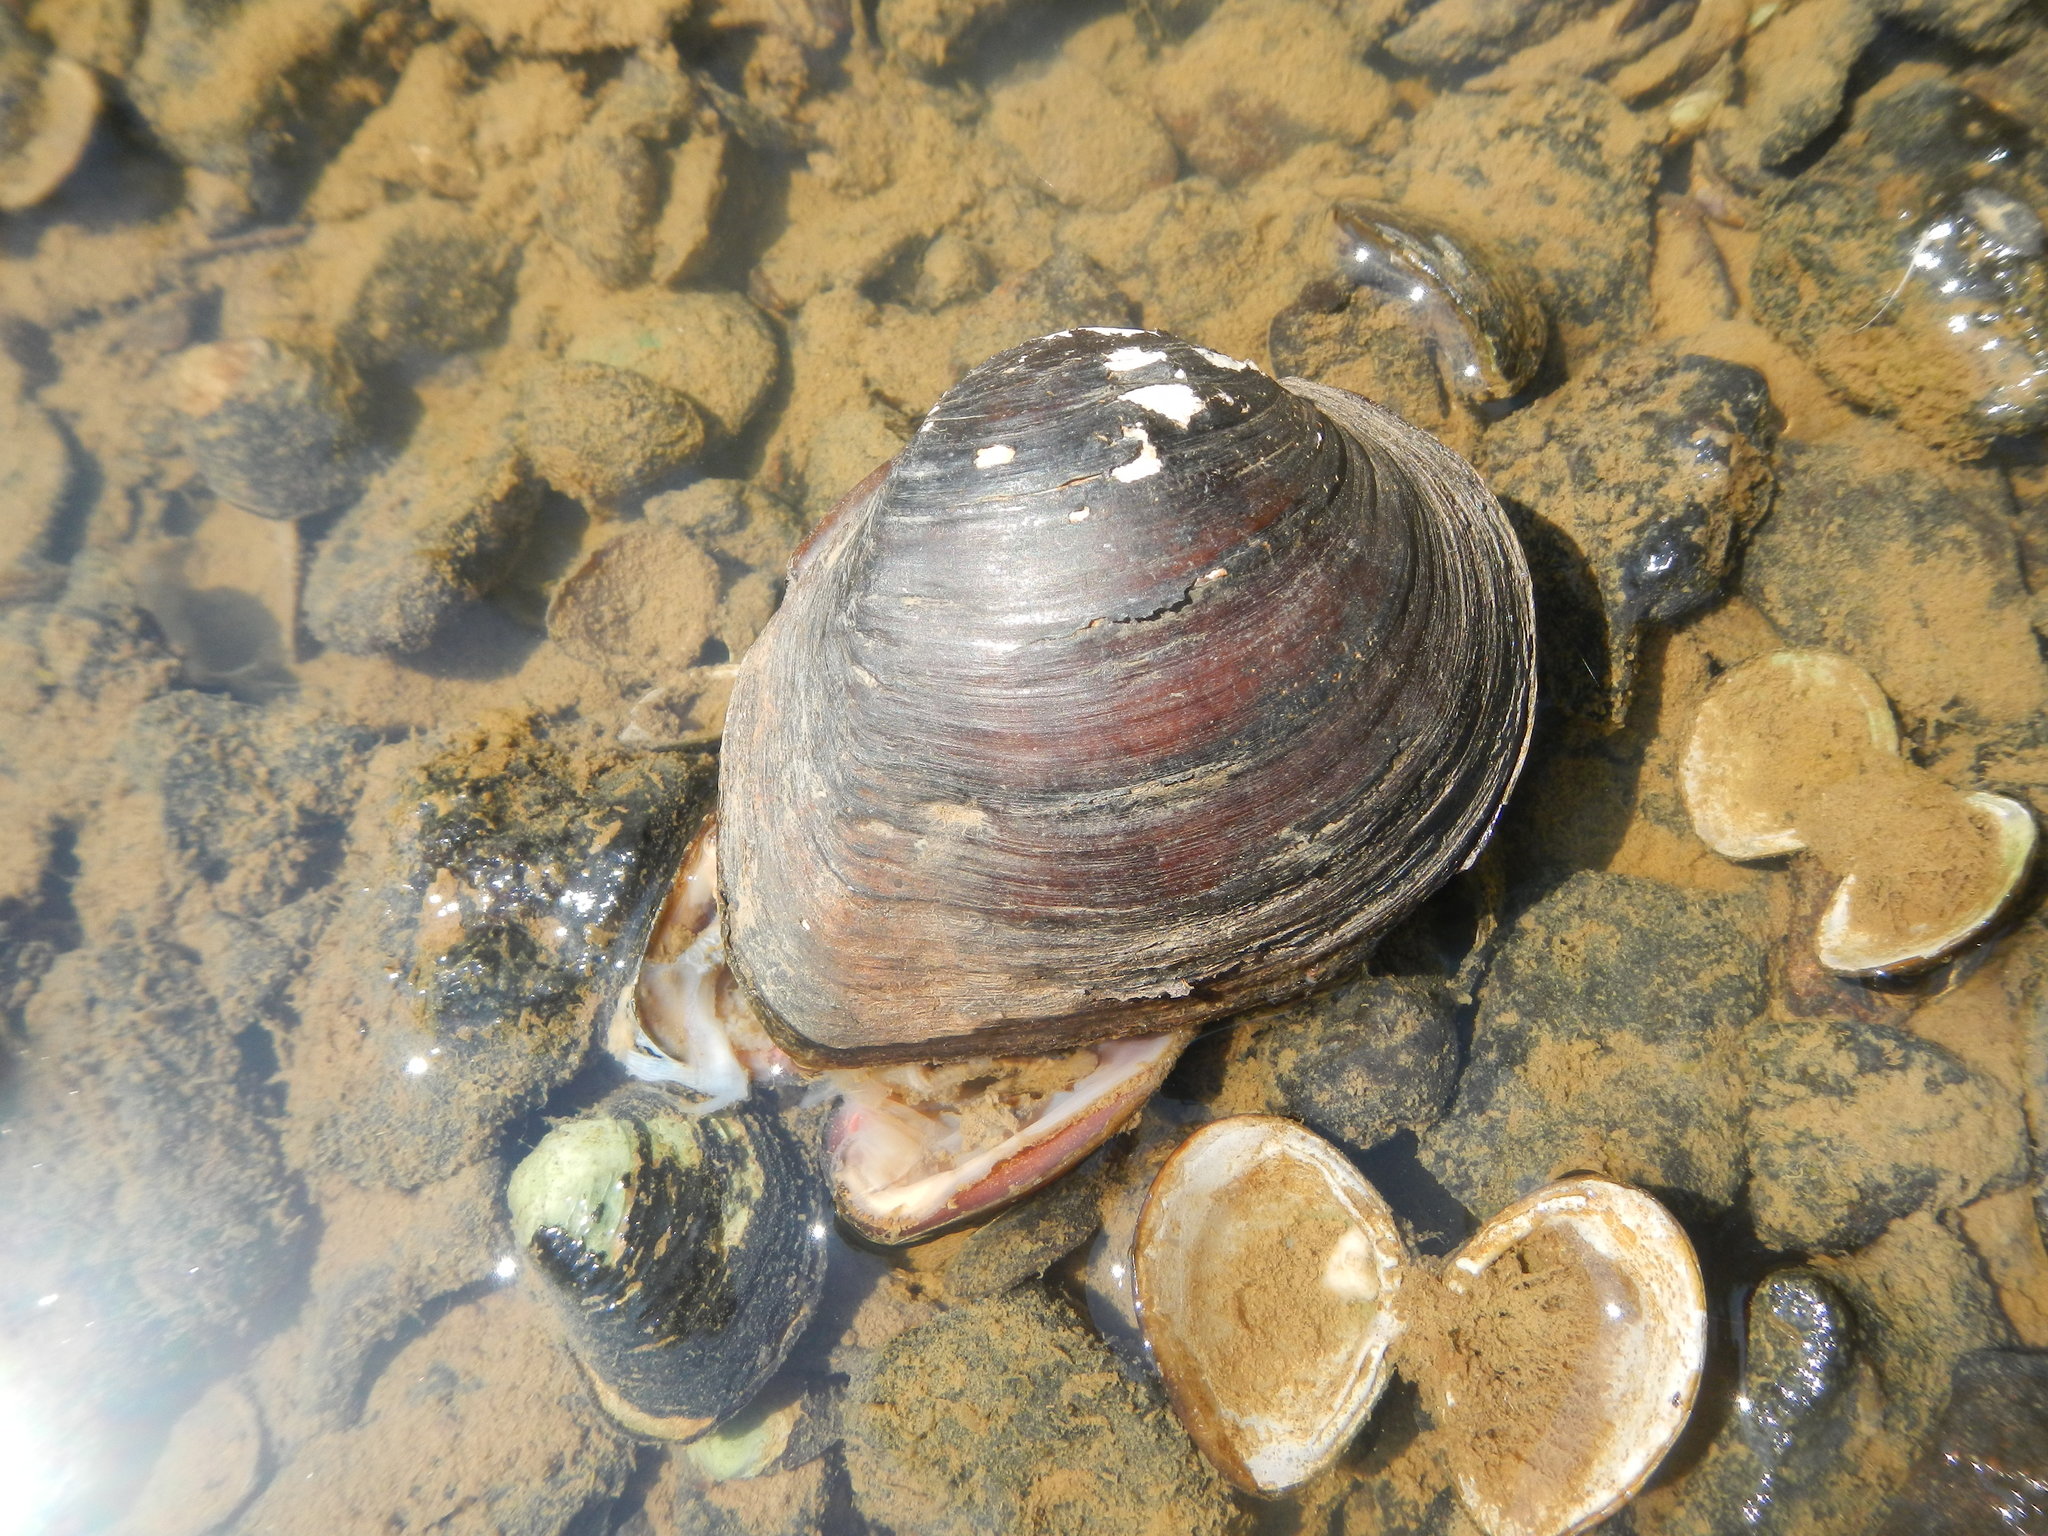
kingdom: Animalia
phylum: Mollusca
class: Bivalvia
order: Unionida
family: Unionidae
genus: Fusconaia
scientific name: Fusconaia chunii
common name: Texas pigtoe
